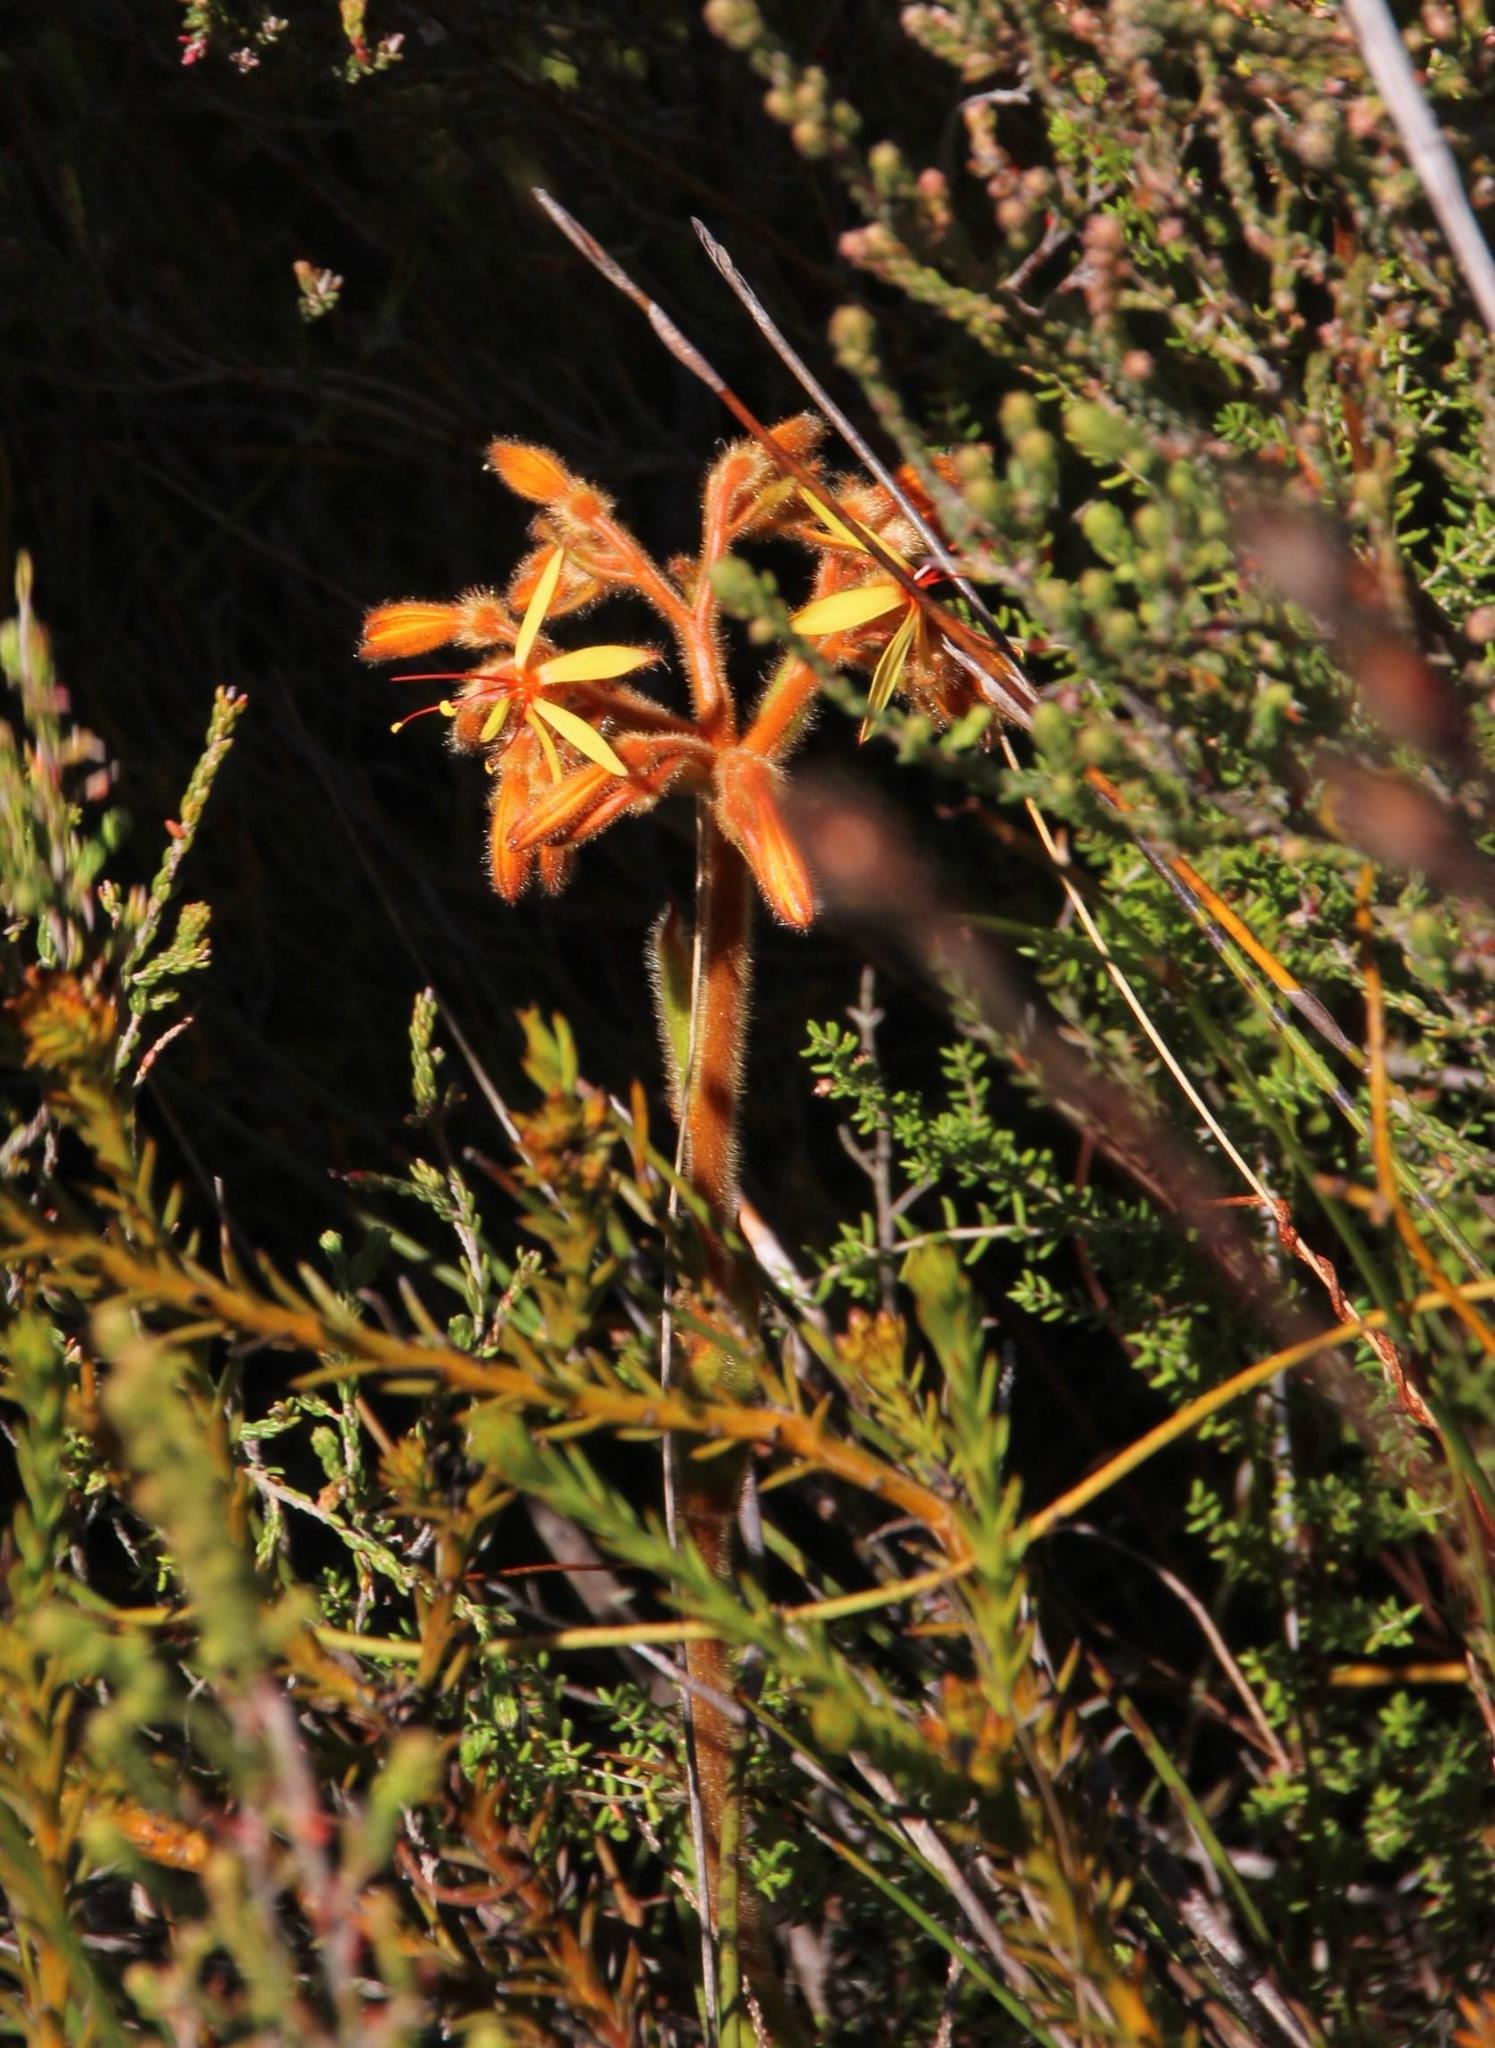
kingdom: Plantae
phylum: Tracheophyta
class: Liliopsida
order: Commelinales
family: Haemodoraceae
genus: Dilatris
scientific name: Dilatris viscosa
